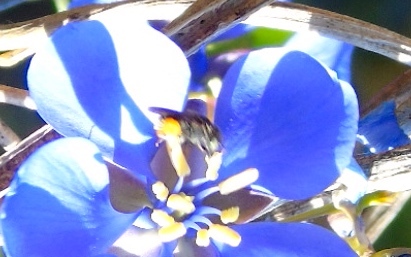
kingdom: Animalia
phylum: Arthropoda
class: Insecta
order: Hymenoptera
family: Apidae
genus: Nannotrigona
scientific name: Nannotrigona perilampoides
